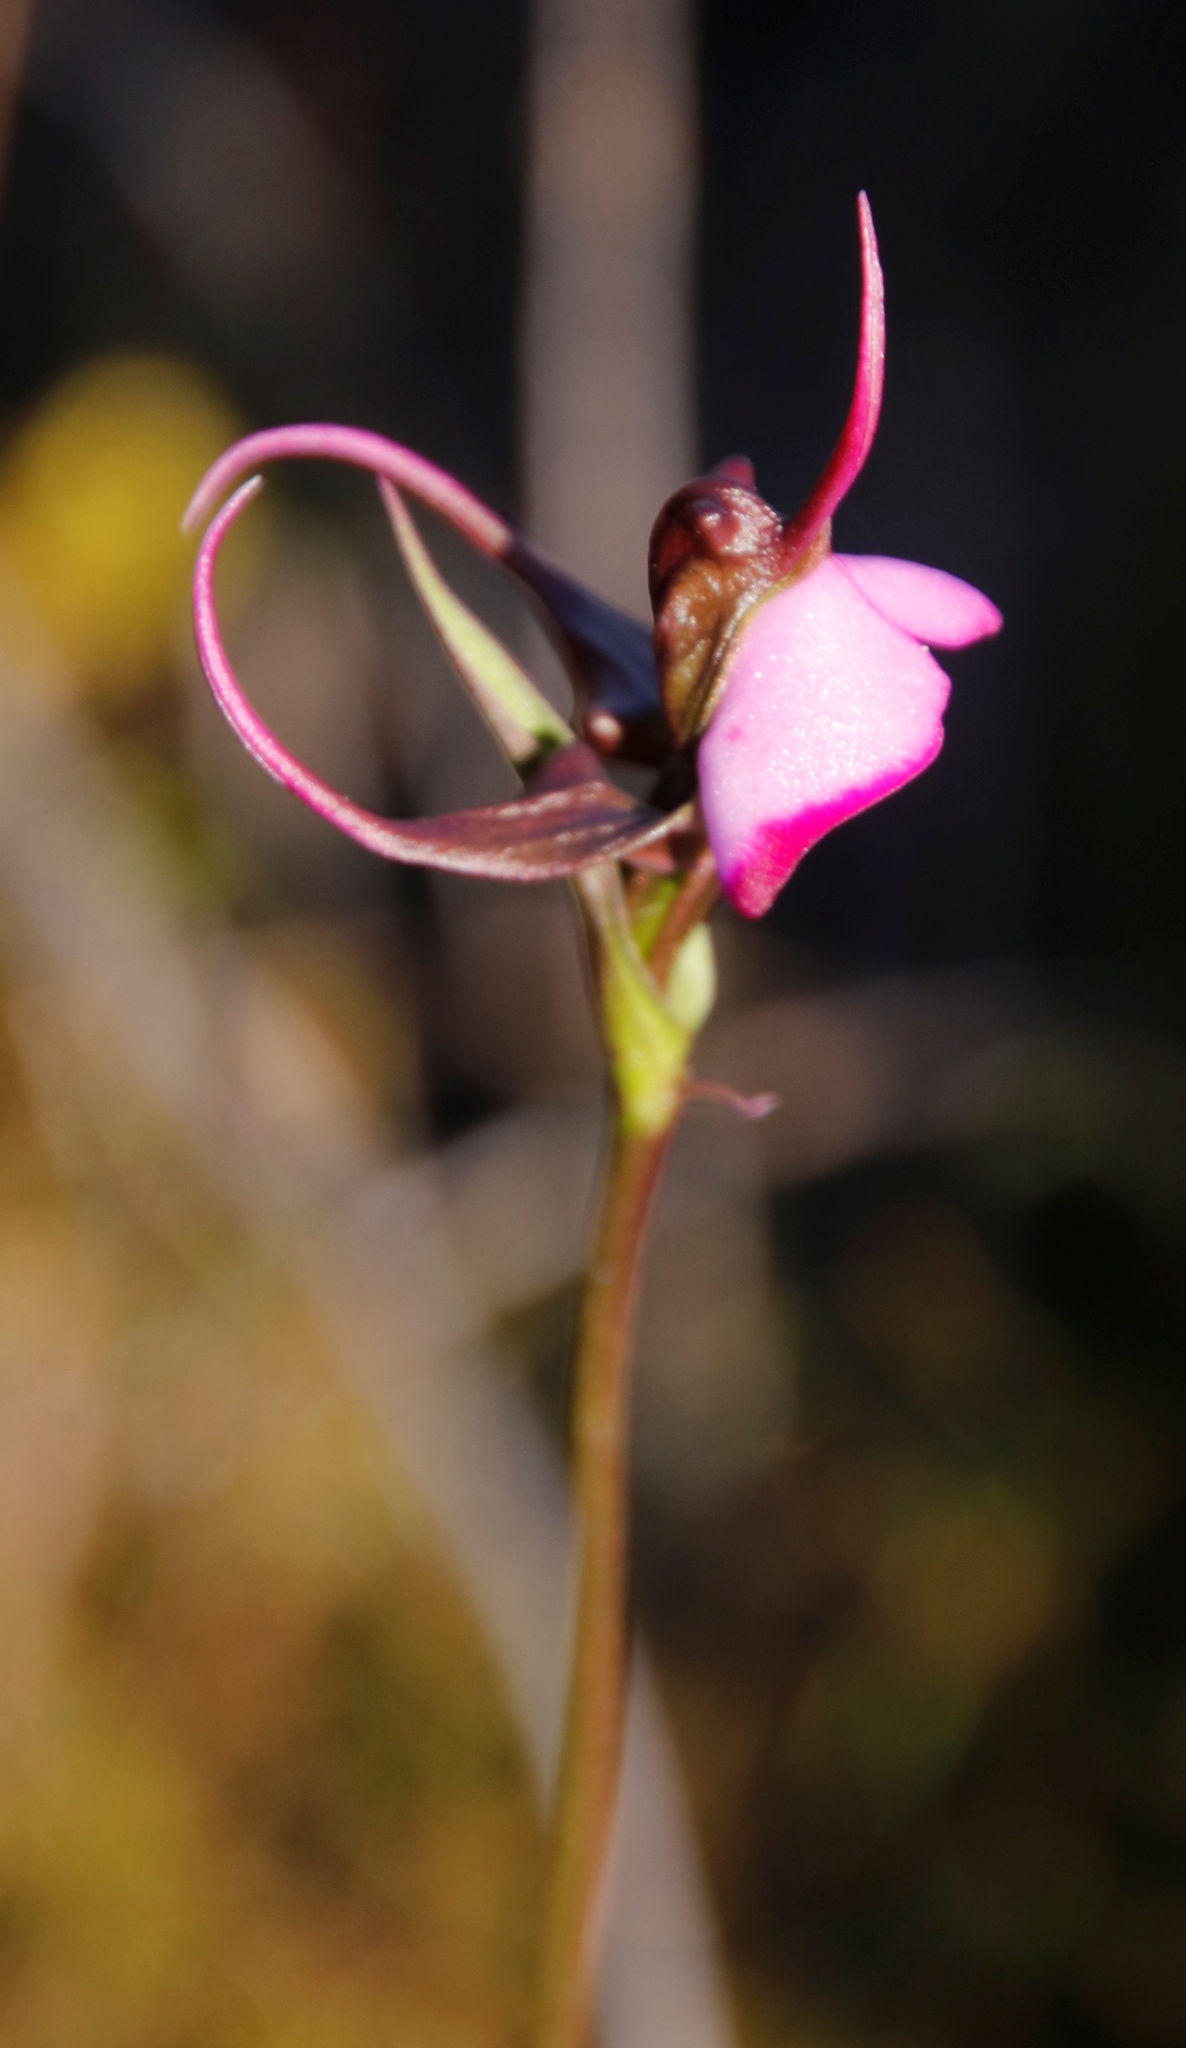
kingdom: Plantae
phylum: Tracheophyta
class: Liliopsida
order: Asparagales
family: Orchidaceae
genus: Disperis
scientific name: Disperis capensis
